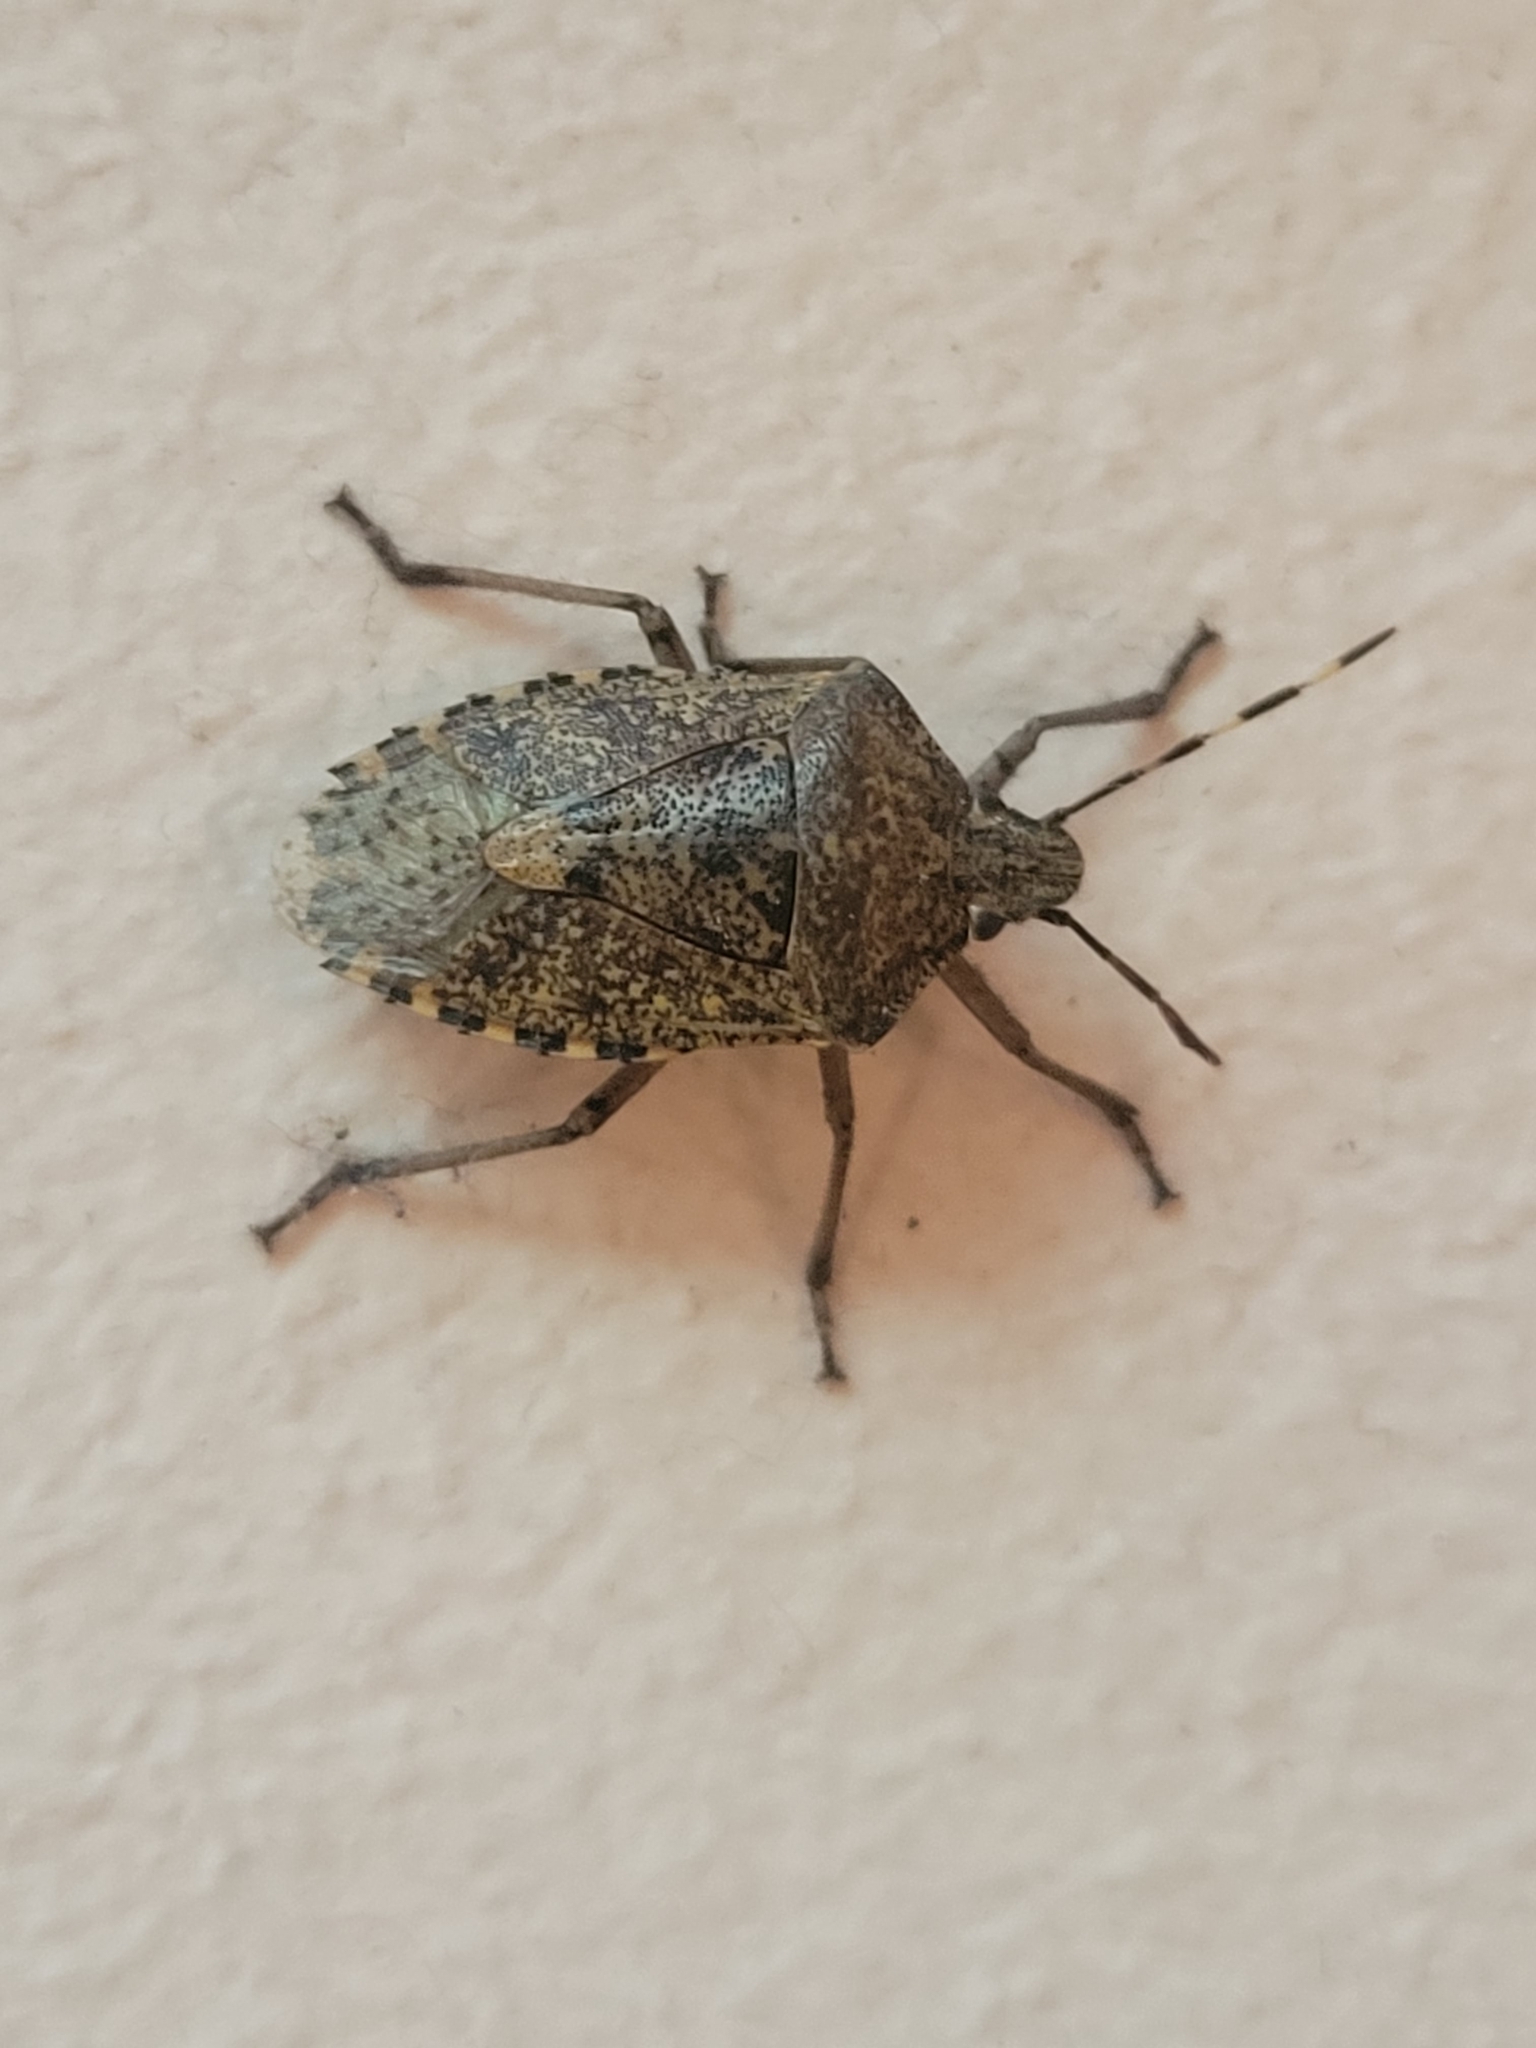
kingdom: Animalia
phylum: Arthropoda
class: Insecta
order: Hemiptera
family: Pentatomidae
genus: Rhaphigaster
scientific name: Rhaphigaster nebulosa
